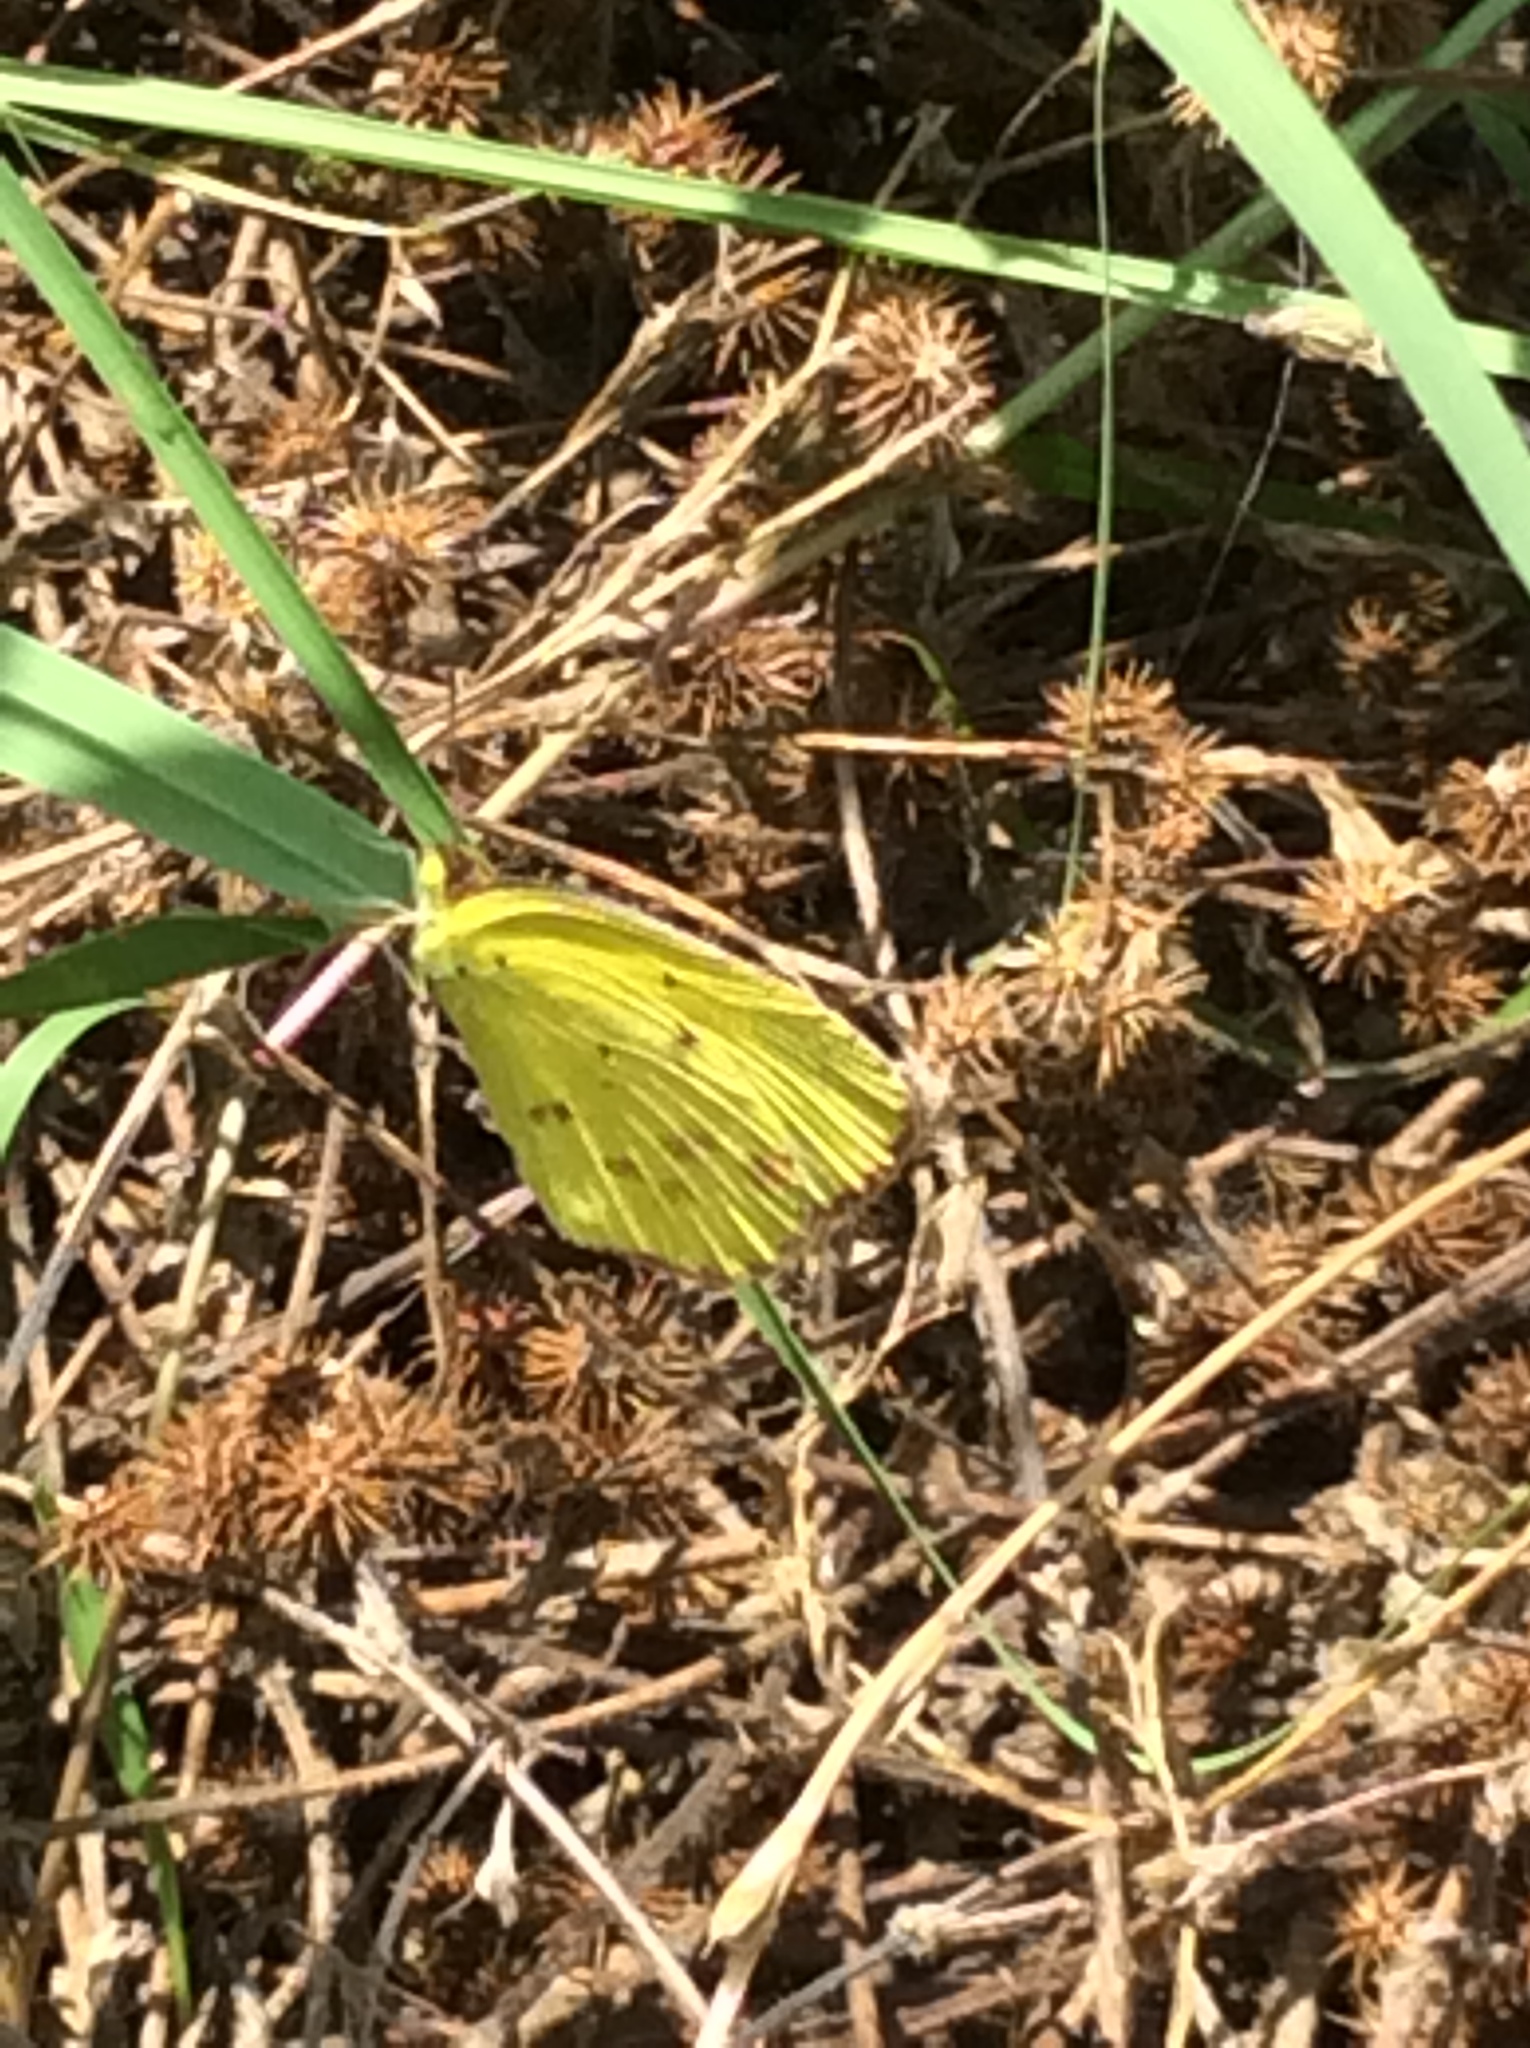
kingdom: Animalia
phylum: Arthropoda
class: Insecta
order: Lepidoptera
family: Pieridae
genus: Pyrisitia
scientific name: Pyrisitia lisa
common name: Little yellow
